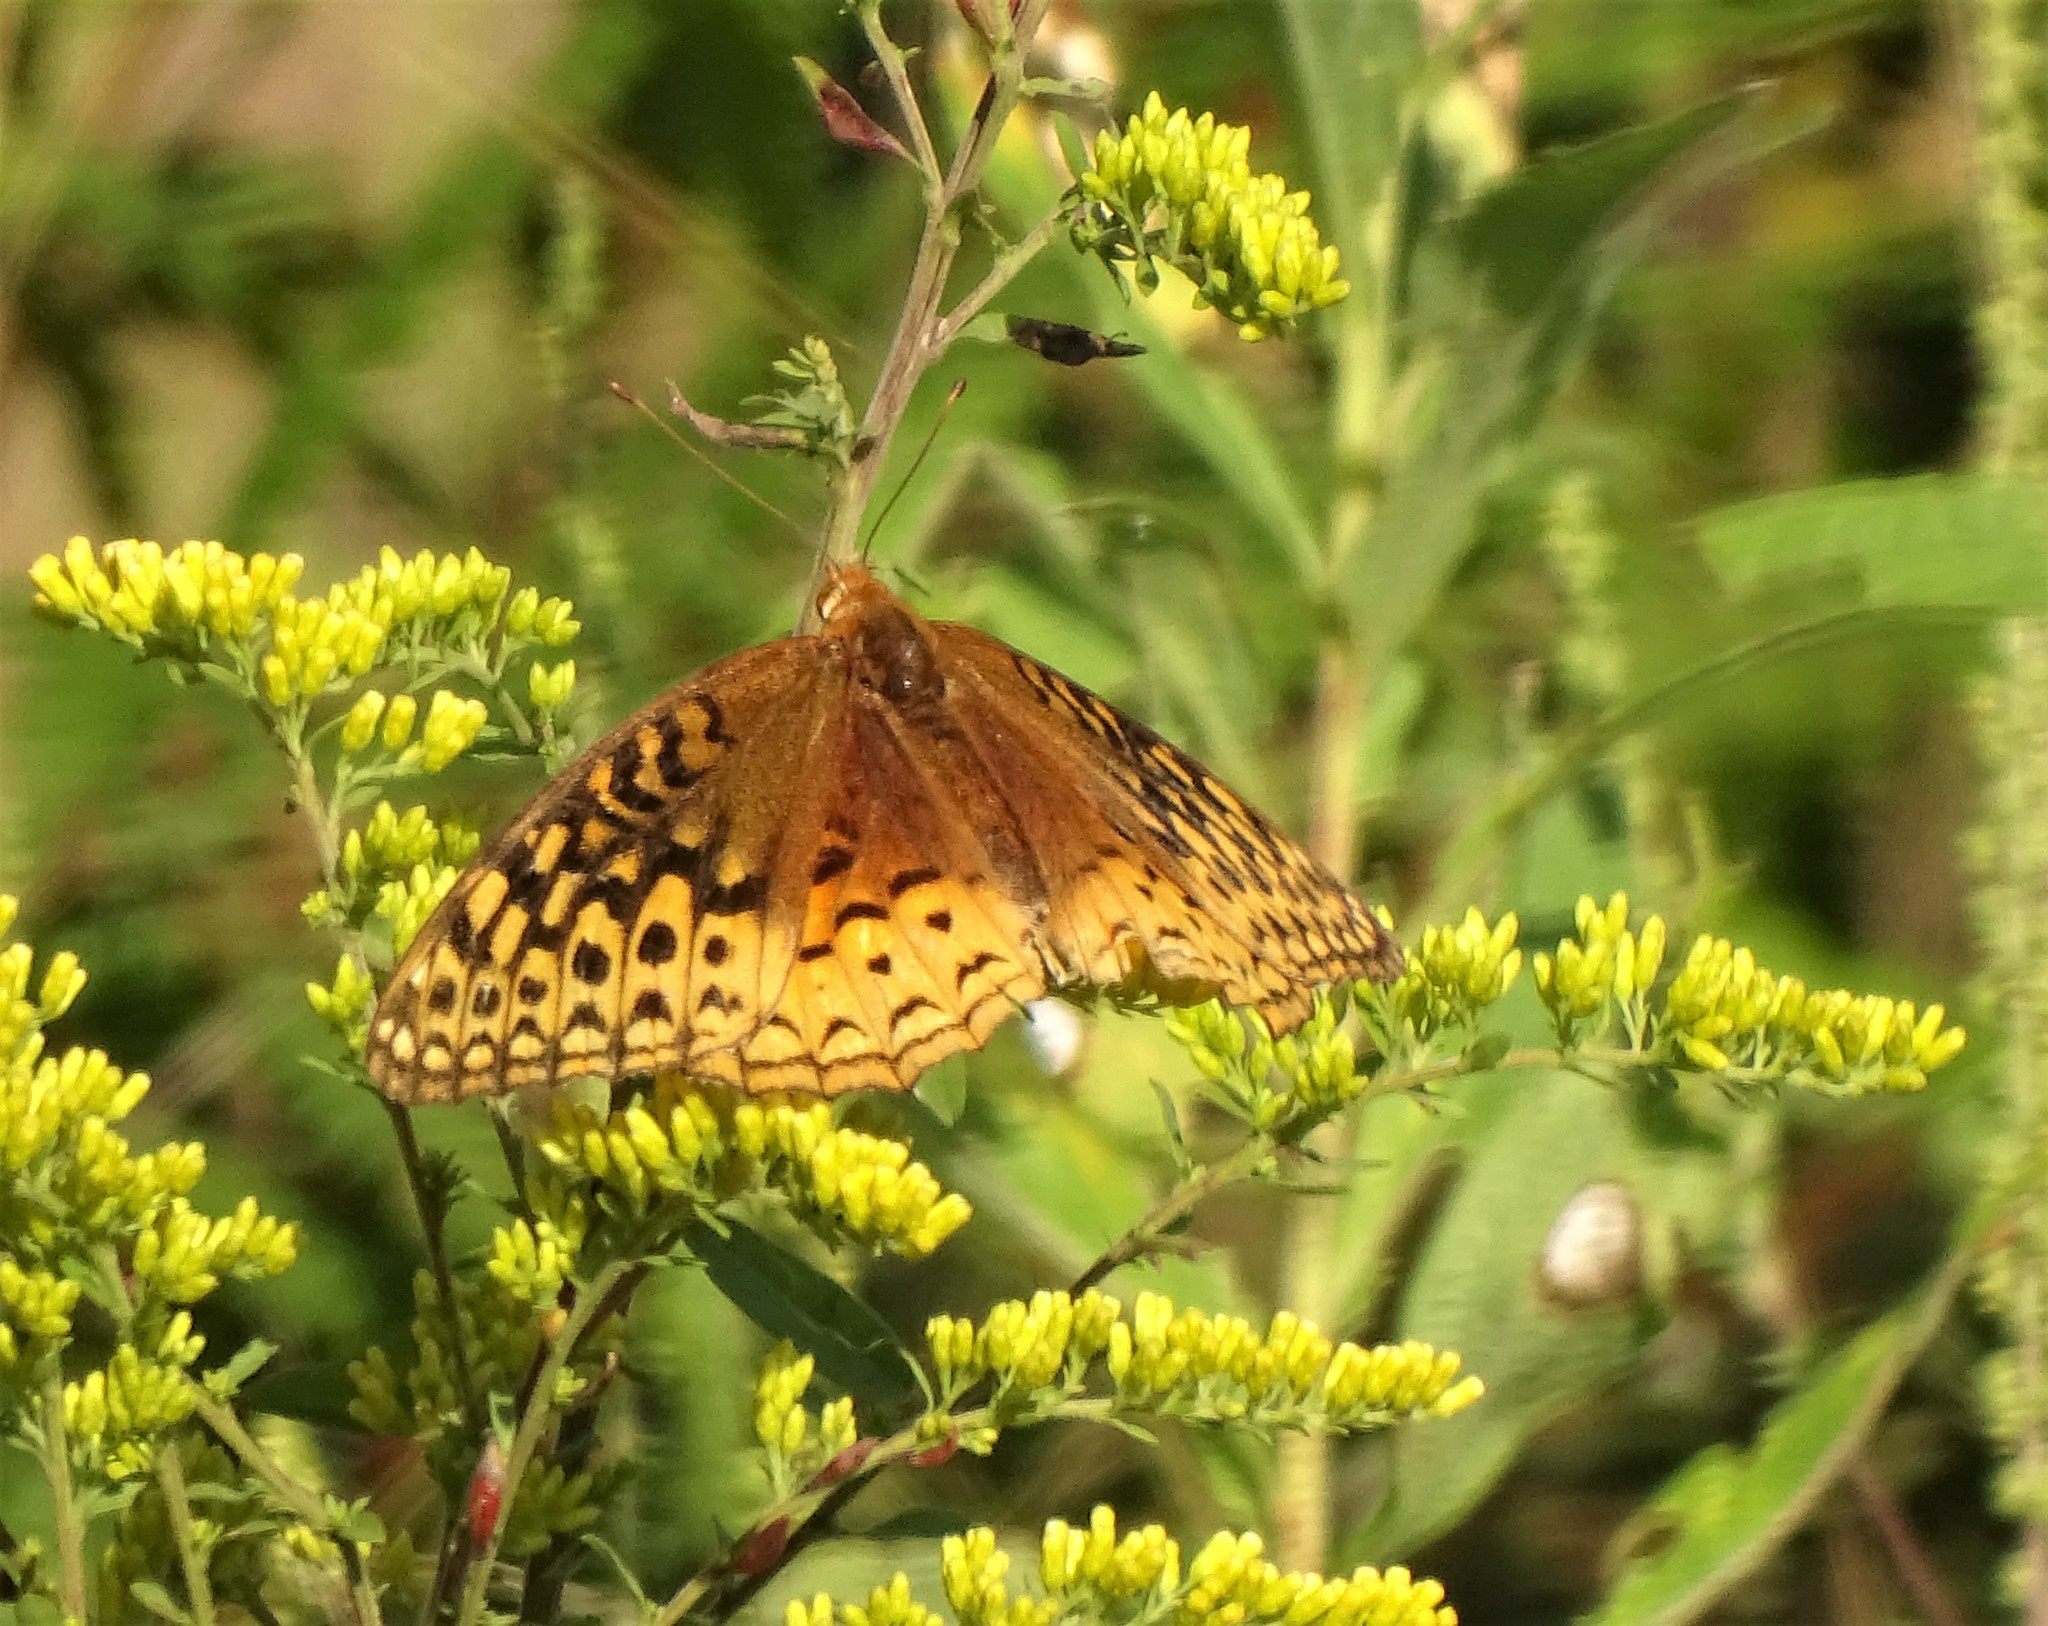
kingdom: Animalia
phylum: Arthropoda
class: Insecta
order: Lepidoptera
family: Nymphalidae
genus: Speyeria
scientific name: Speyeria cybele
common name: Great spangled fritillary
